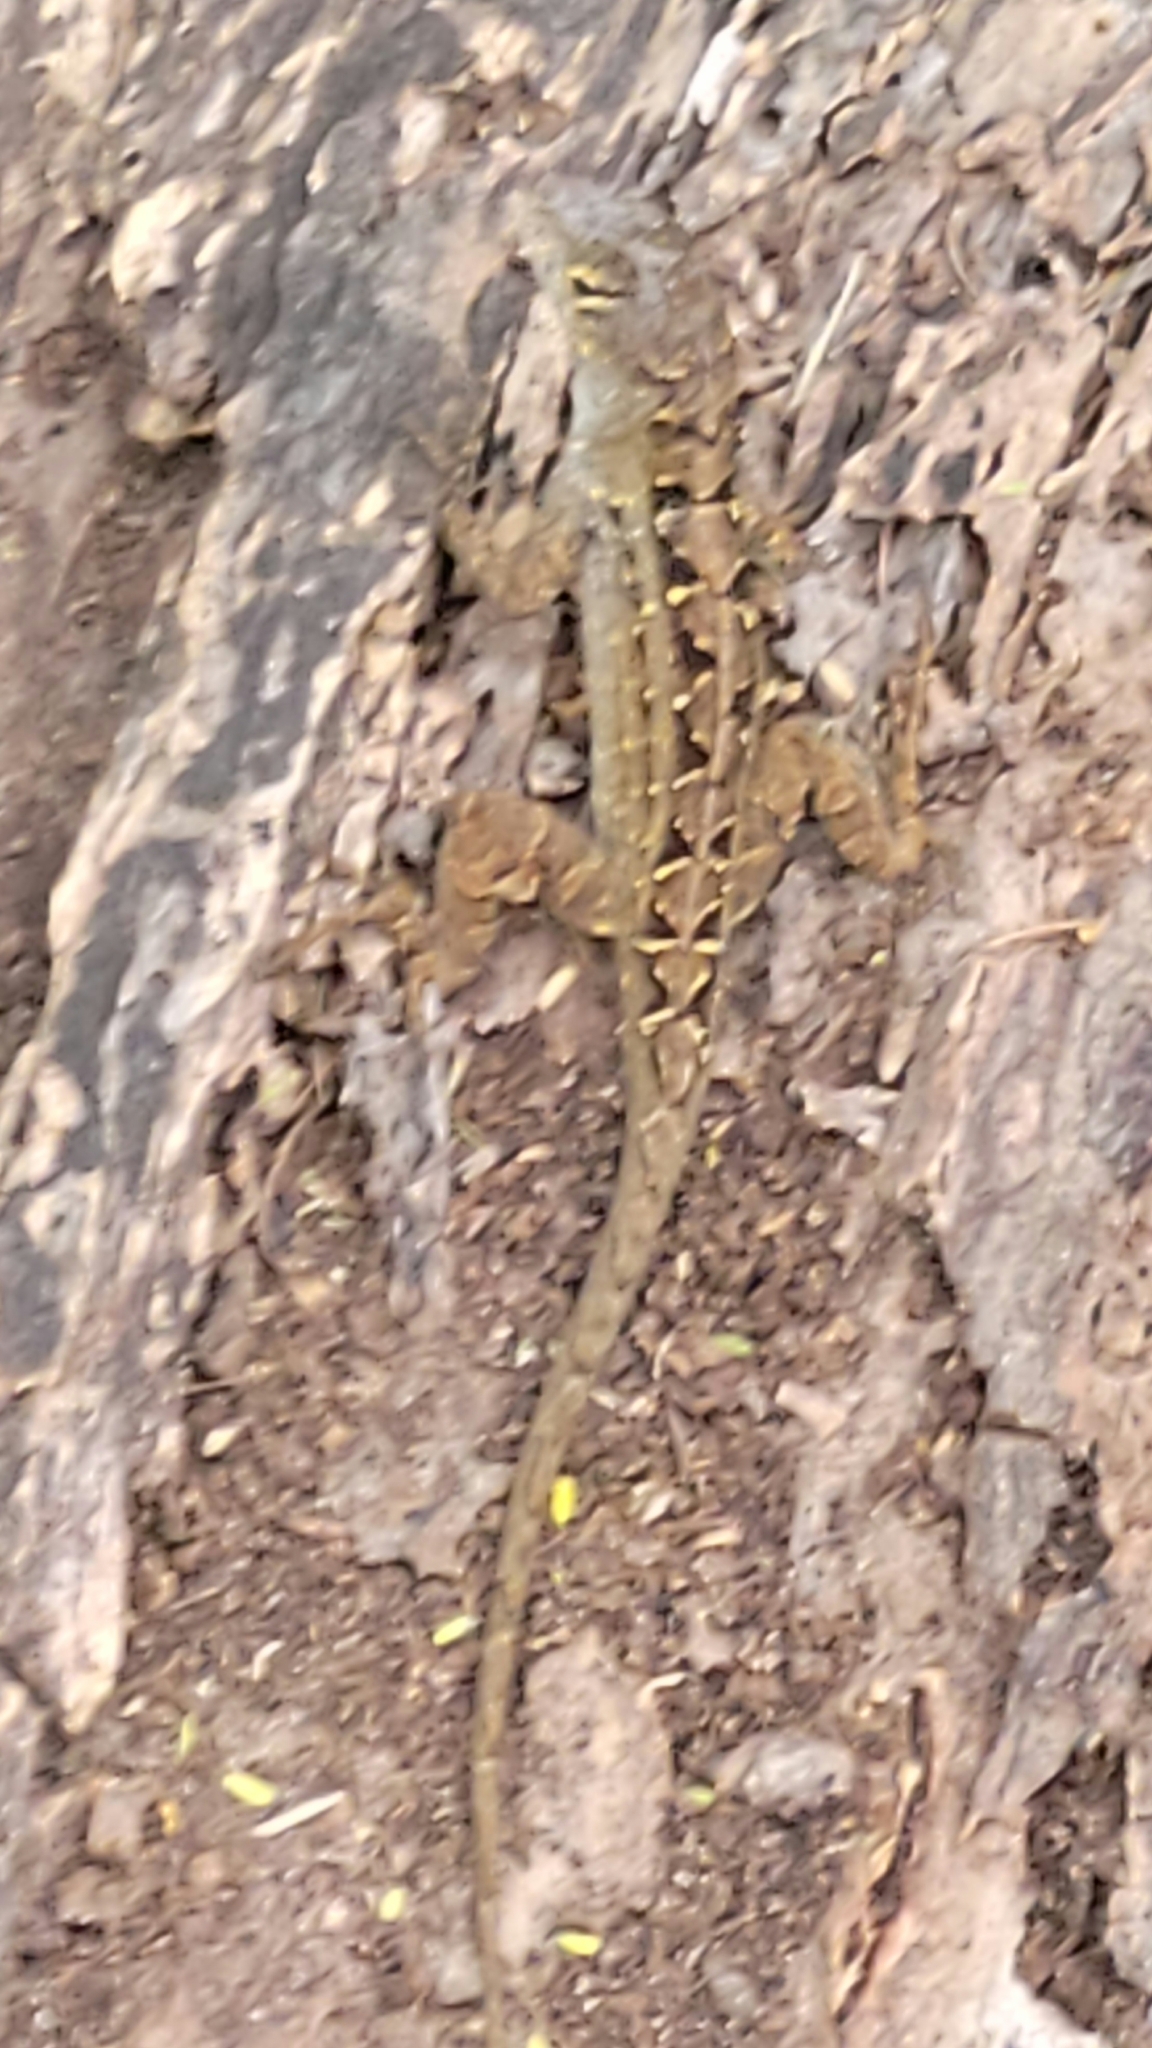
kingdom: Animalia
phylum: Chordata
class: Squamata
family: Dactyloidae
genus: Anolis
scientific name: Anolis sagrei
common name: Brown anole
